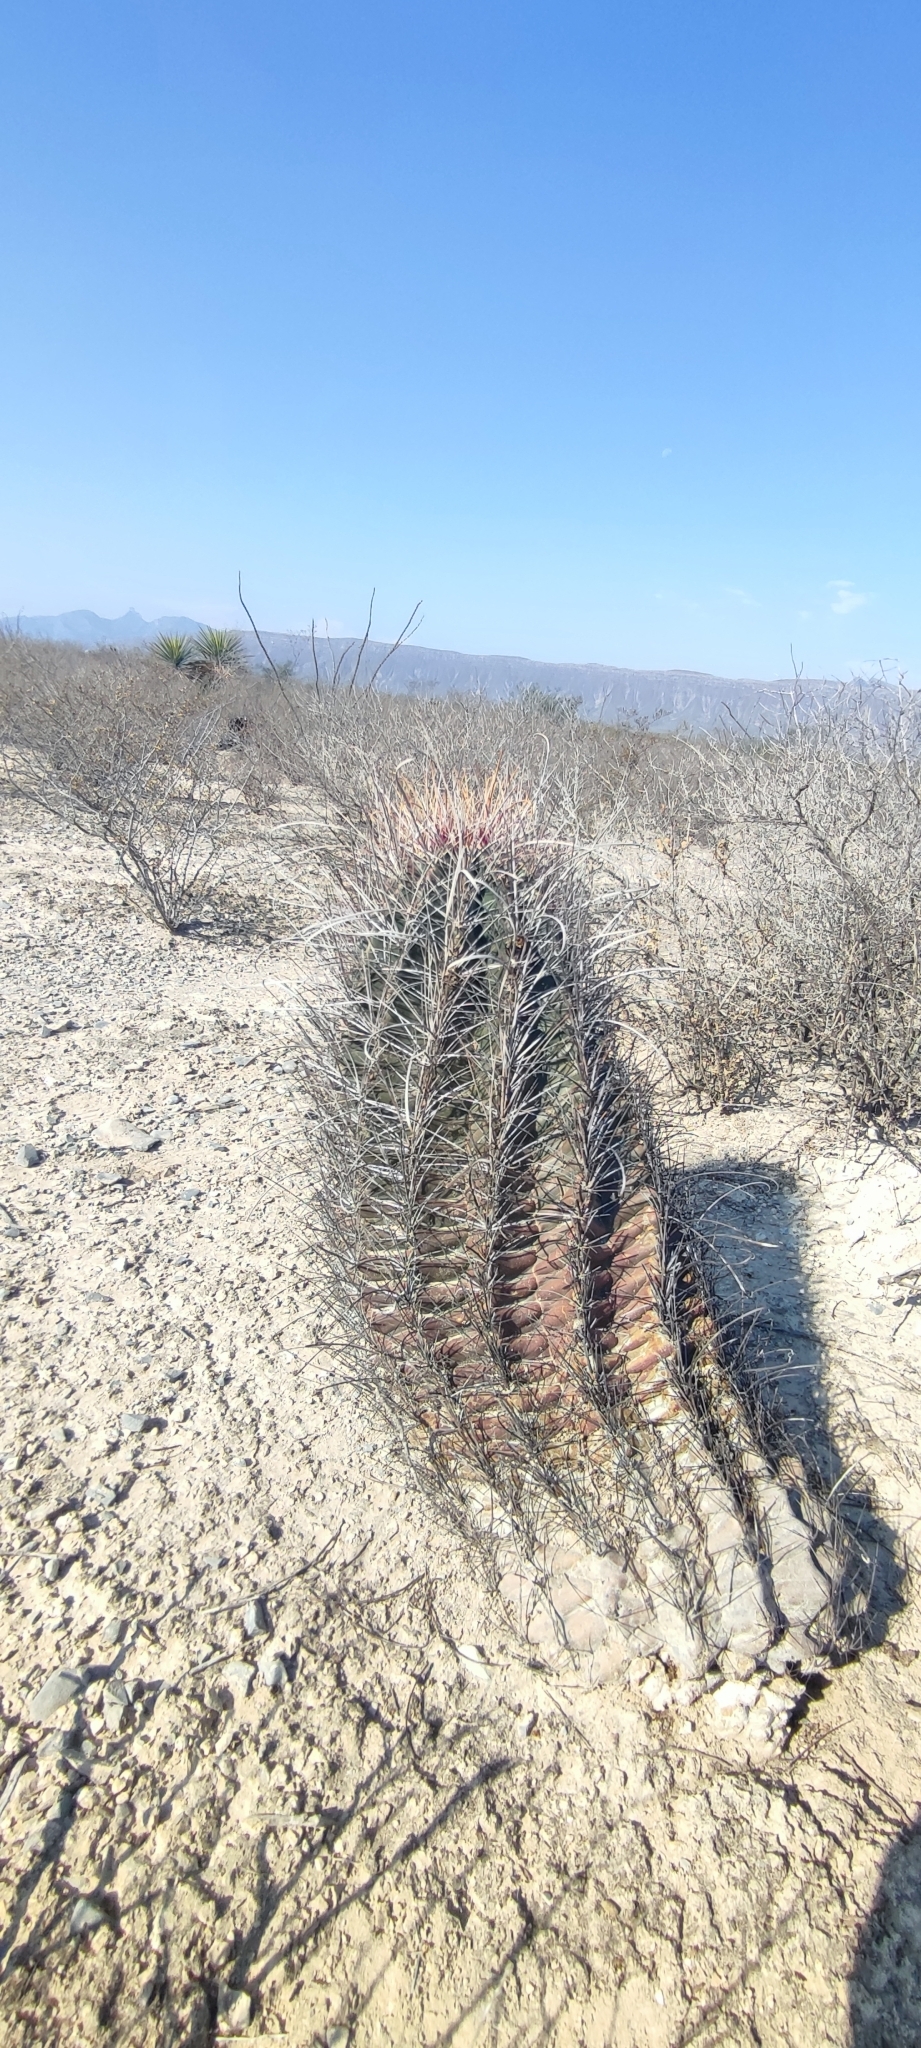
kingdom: Plantae
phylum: Tracheophyta
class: Magnoliopsida
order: Caryophyllales
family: Cactaceae
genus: Bisnaga
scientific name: Bisnaga hamatacantha
